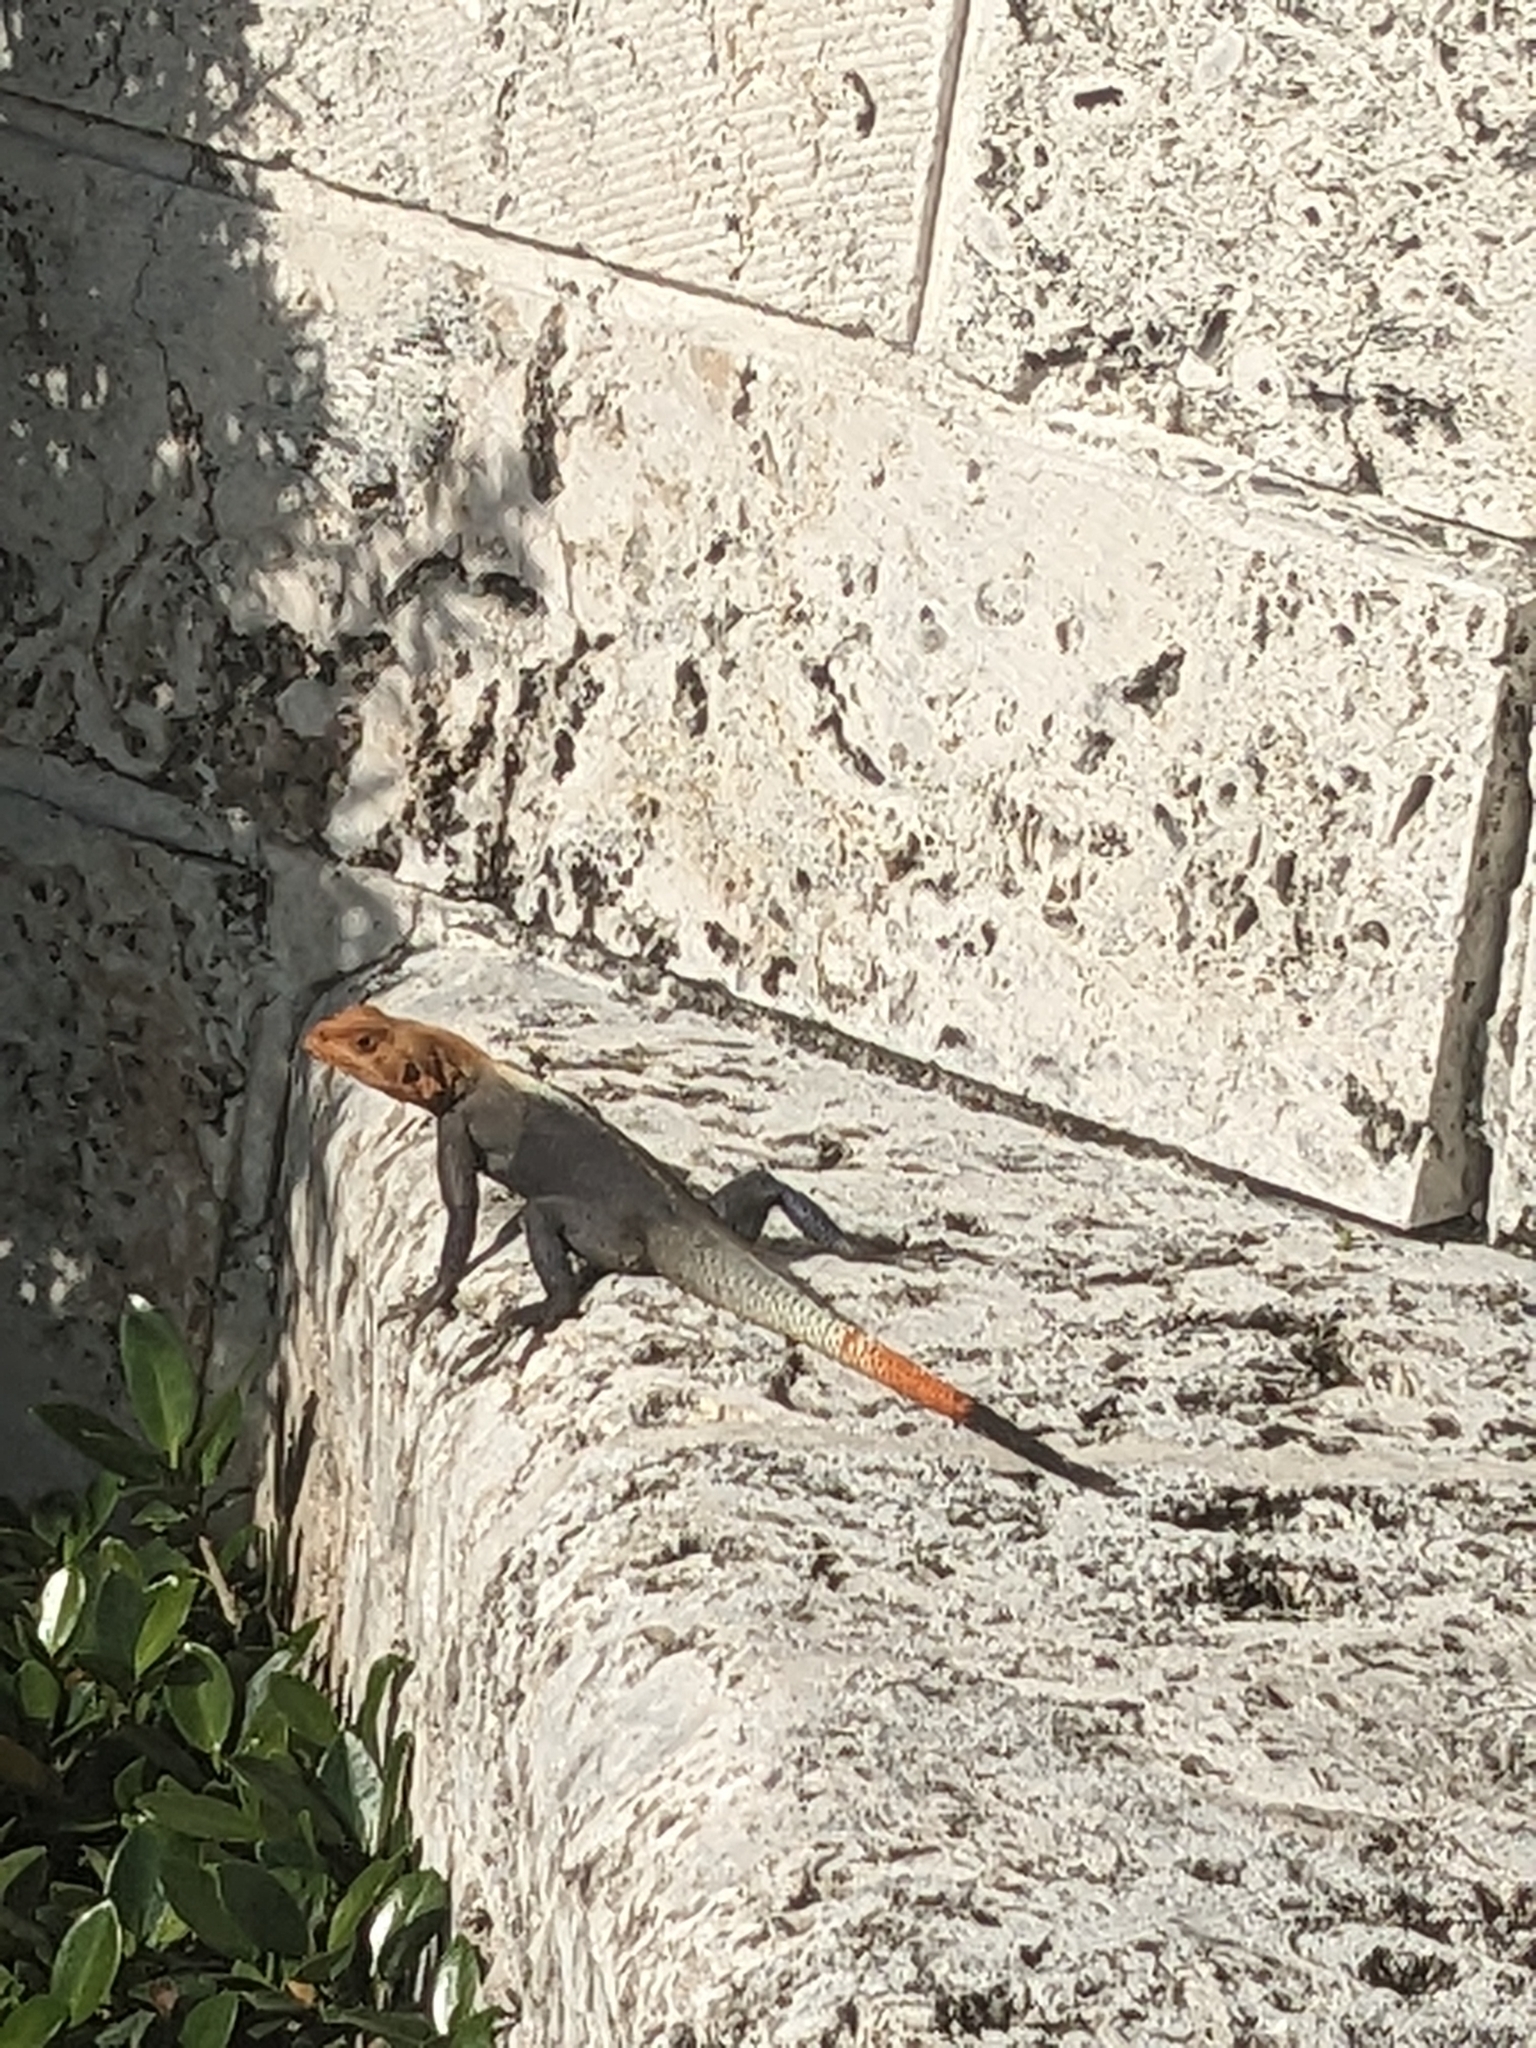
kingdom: Animalia
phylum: Chordata
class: Squamata
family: Agamidae
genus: Agama
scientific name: Agama picticauda
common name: Red-headed agama
